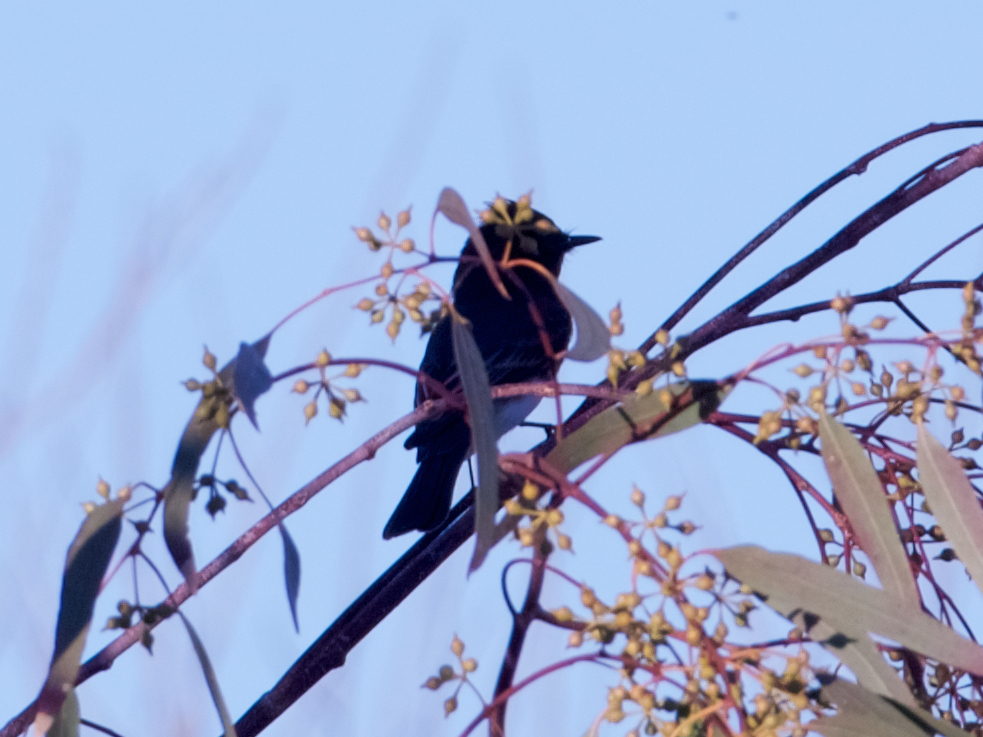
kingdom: Animalia
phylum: Chordata
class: Aves
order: Passeriformes
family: Tyrannidae
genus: Sayornis
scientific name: Sayornis nigricans
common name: Black phoebe
